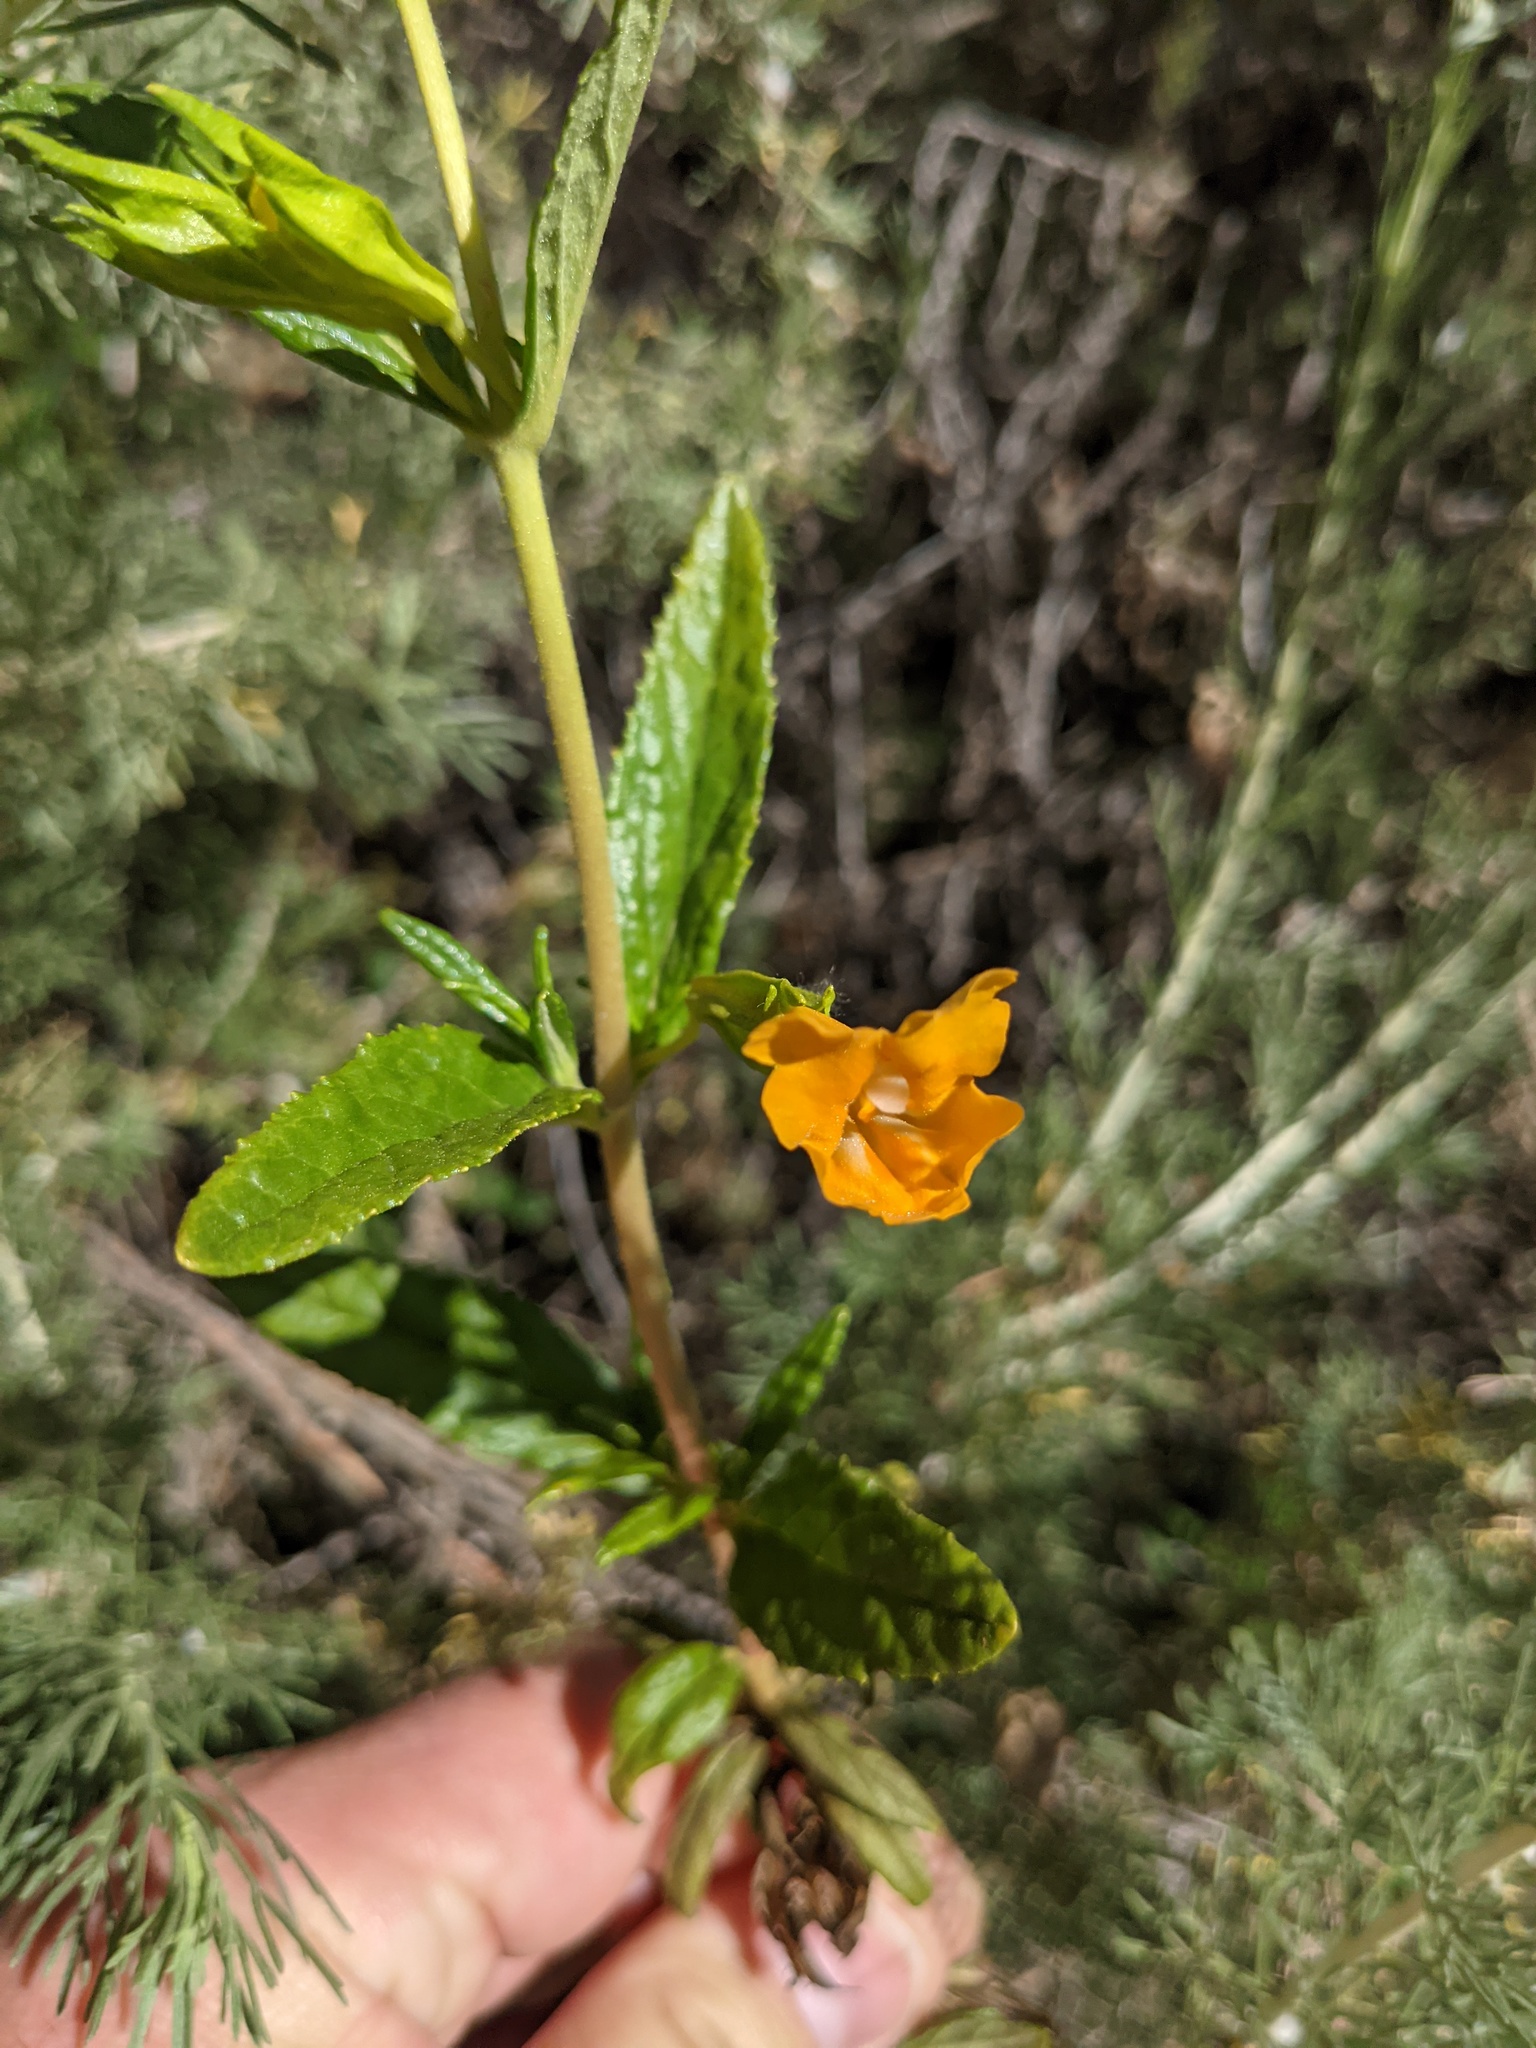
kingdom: Plantae
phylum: Tracheophyta
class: Magnoliopsida
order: Lamiales
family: Phrymaceae
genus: Diplacus
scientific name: Diplacus aurantiacus
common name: Bush monkey-flower
